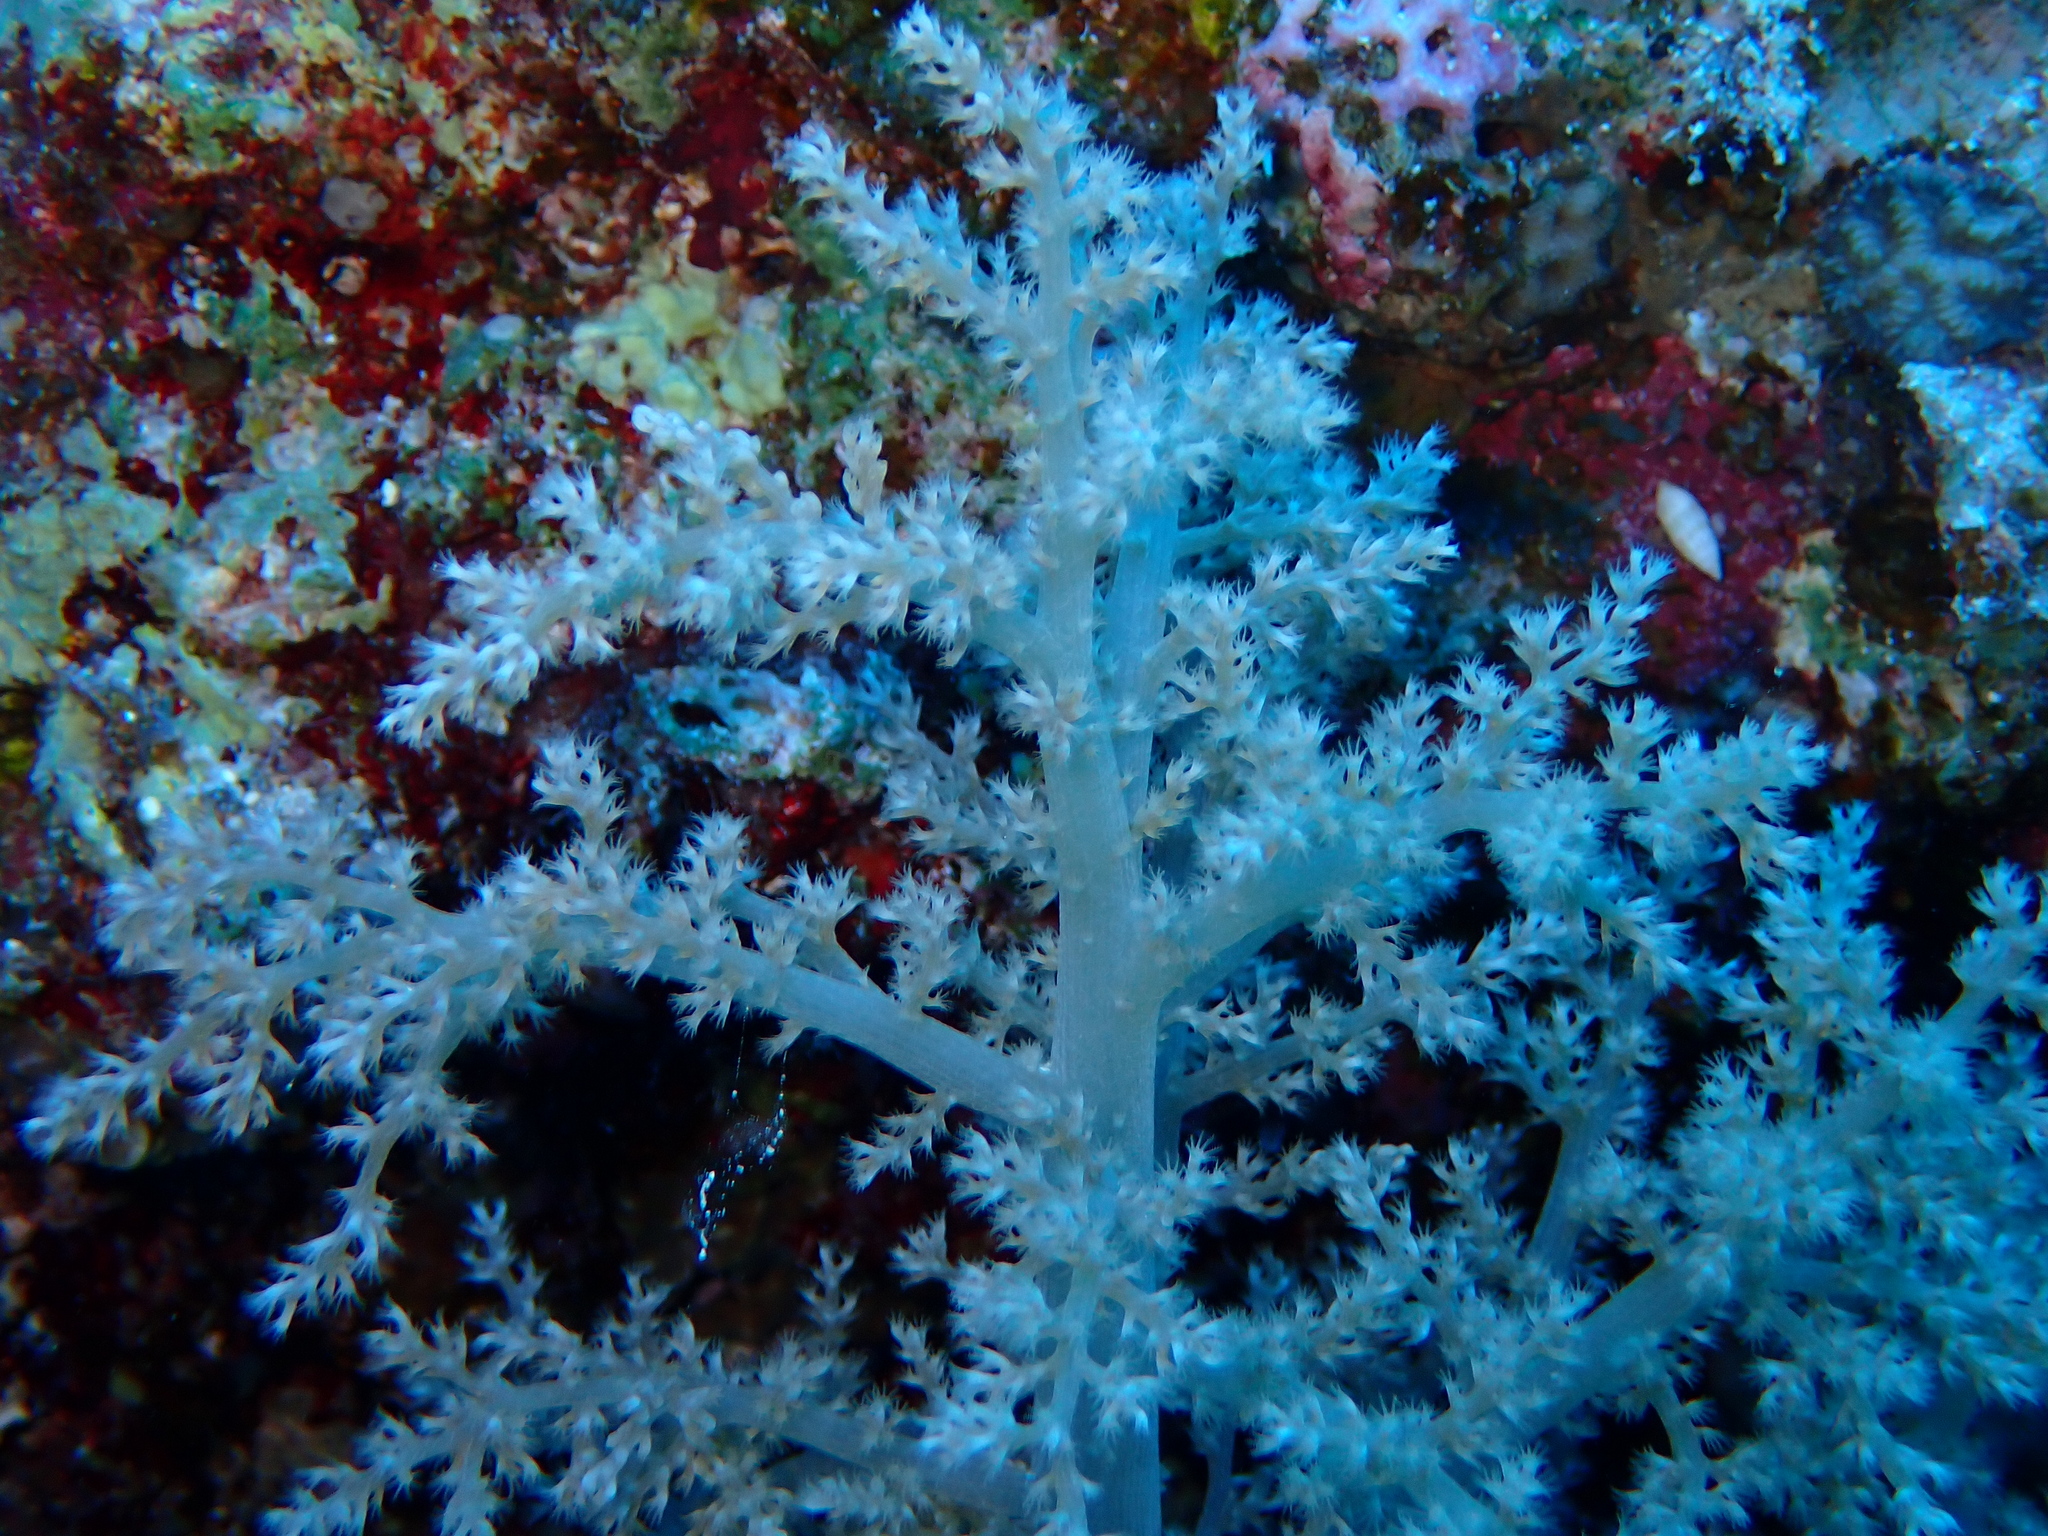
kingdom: Animalia
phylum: Cnidaria
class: Anthozoa
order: Malacalcyonacea
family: Nephtheidae
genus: Litophyton
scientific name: Litophyton
